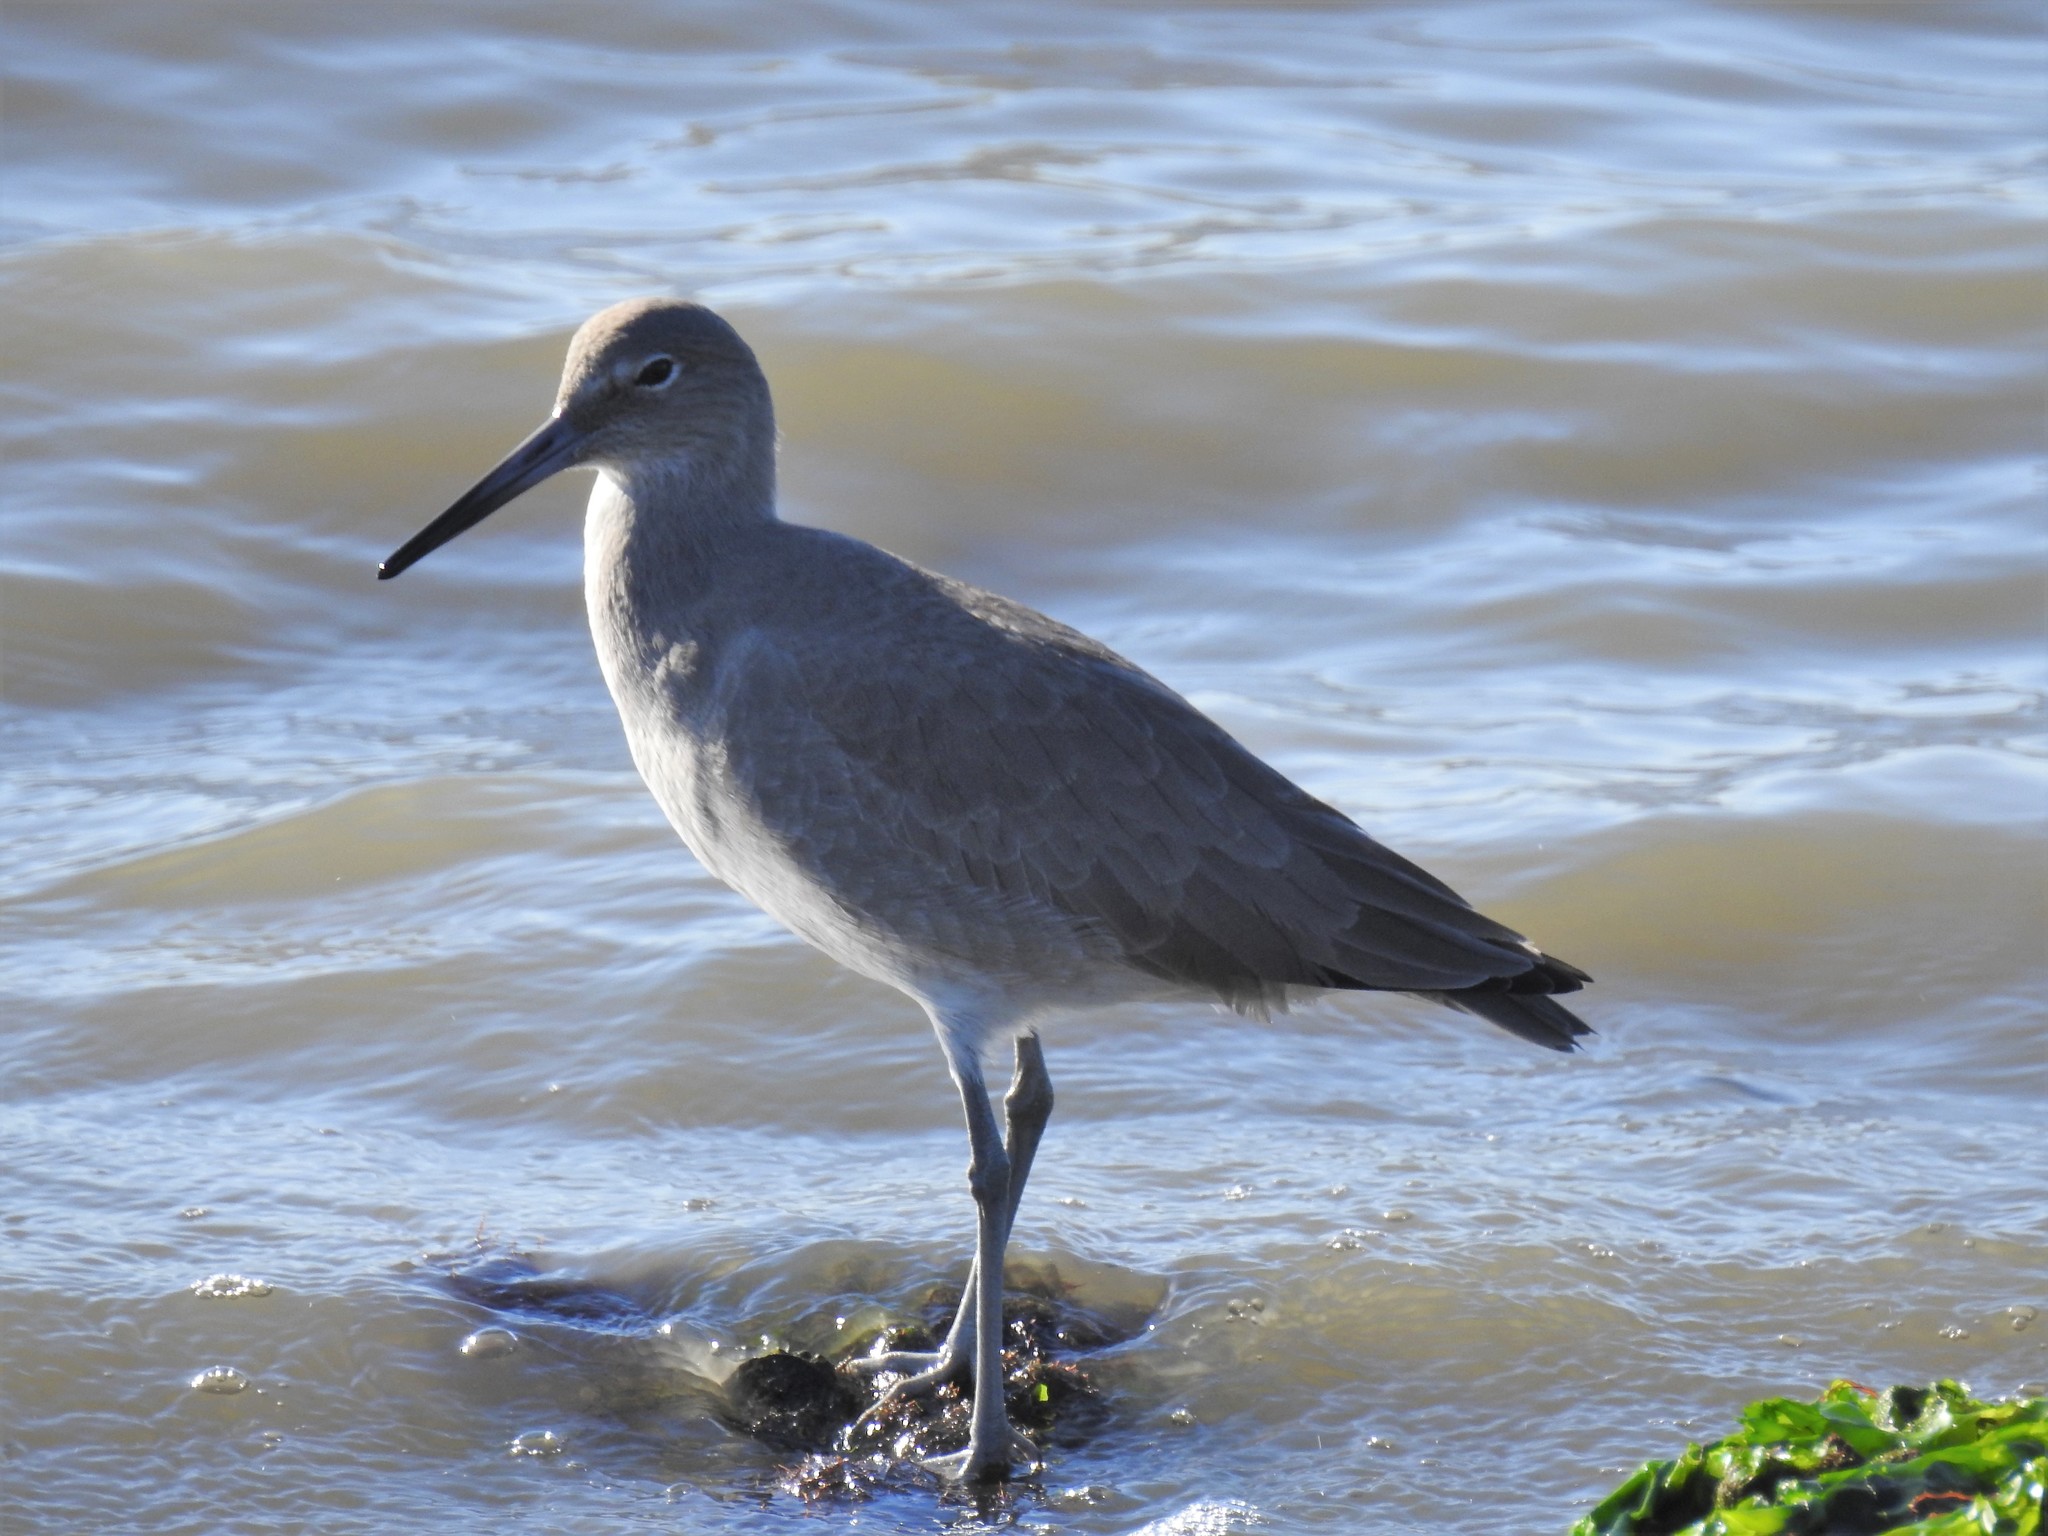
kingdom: Animalia
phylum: Chordata
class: Aves
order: Charadriiformes
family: Scolopacidae
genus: Tringa
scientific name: Tringa semipalmata
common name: Willet
